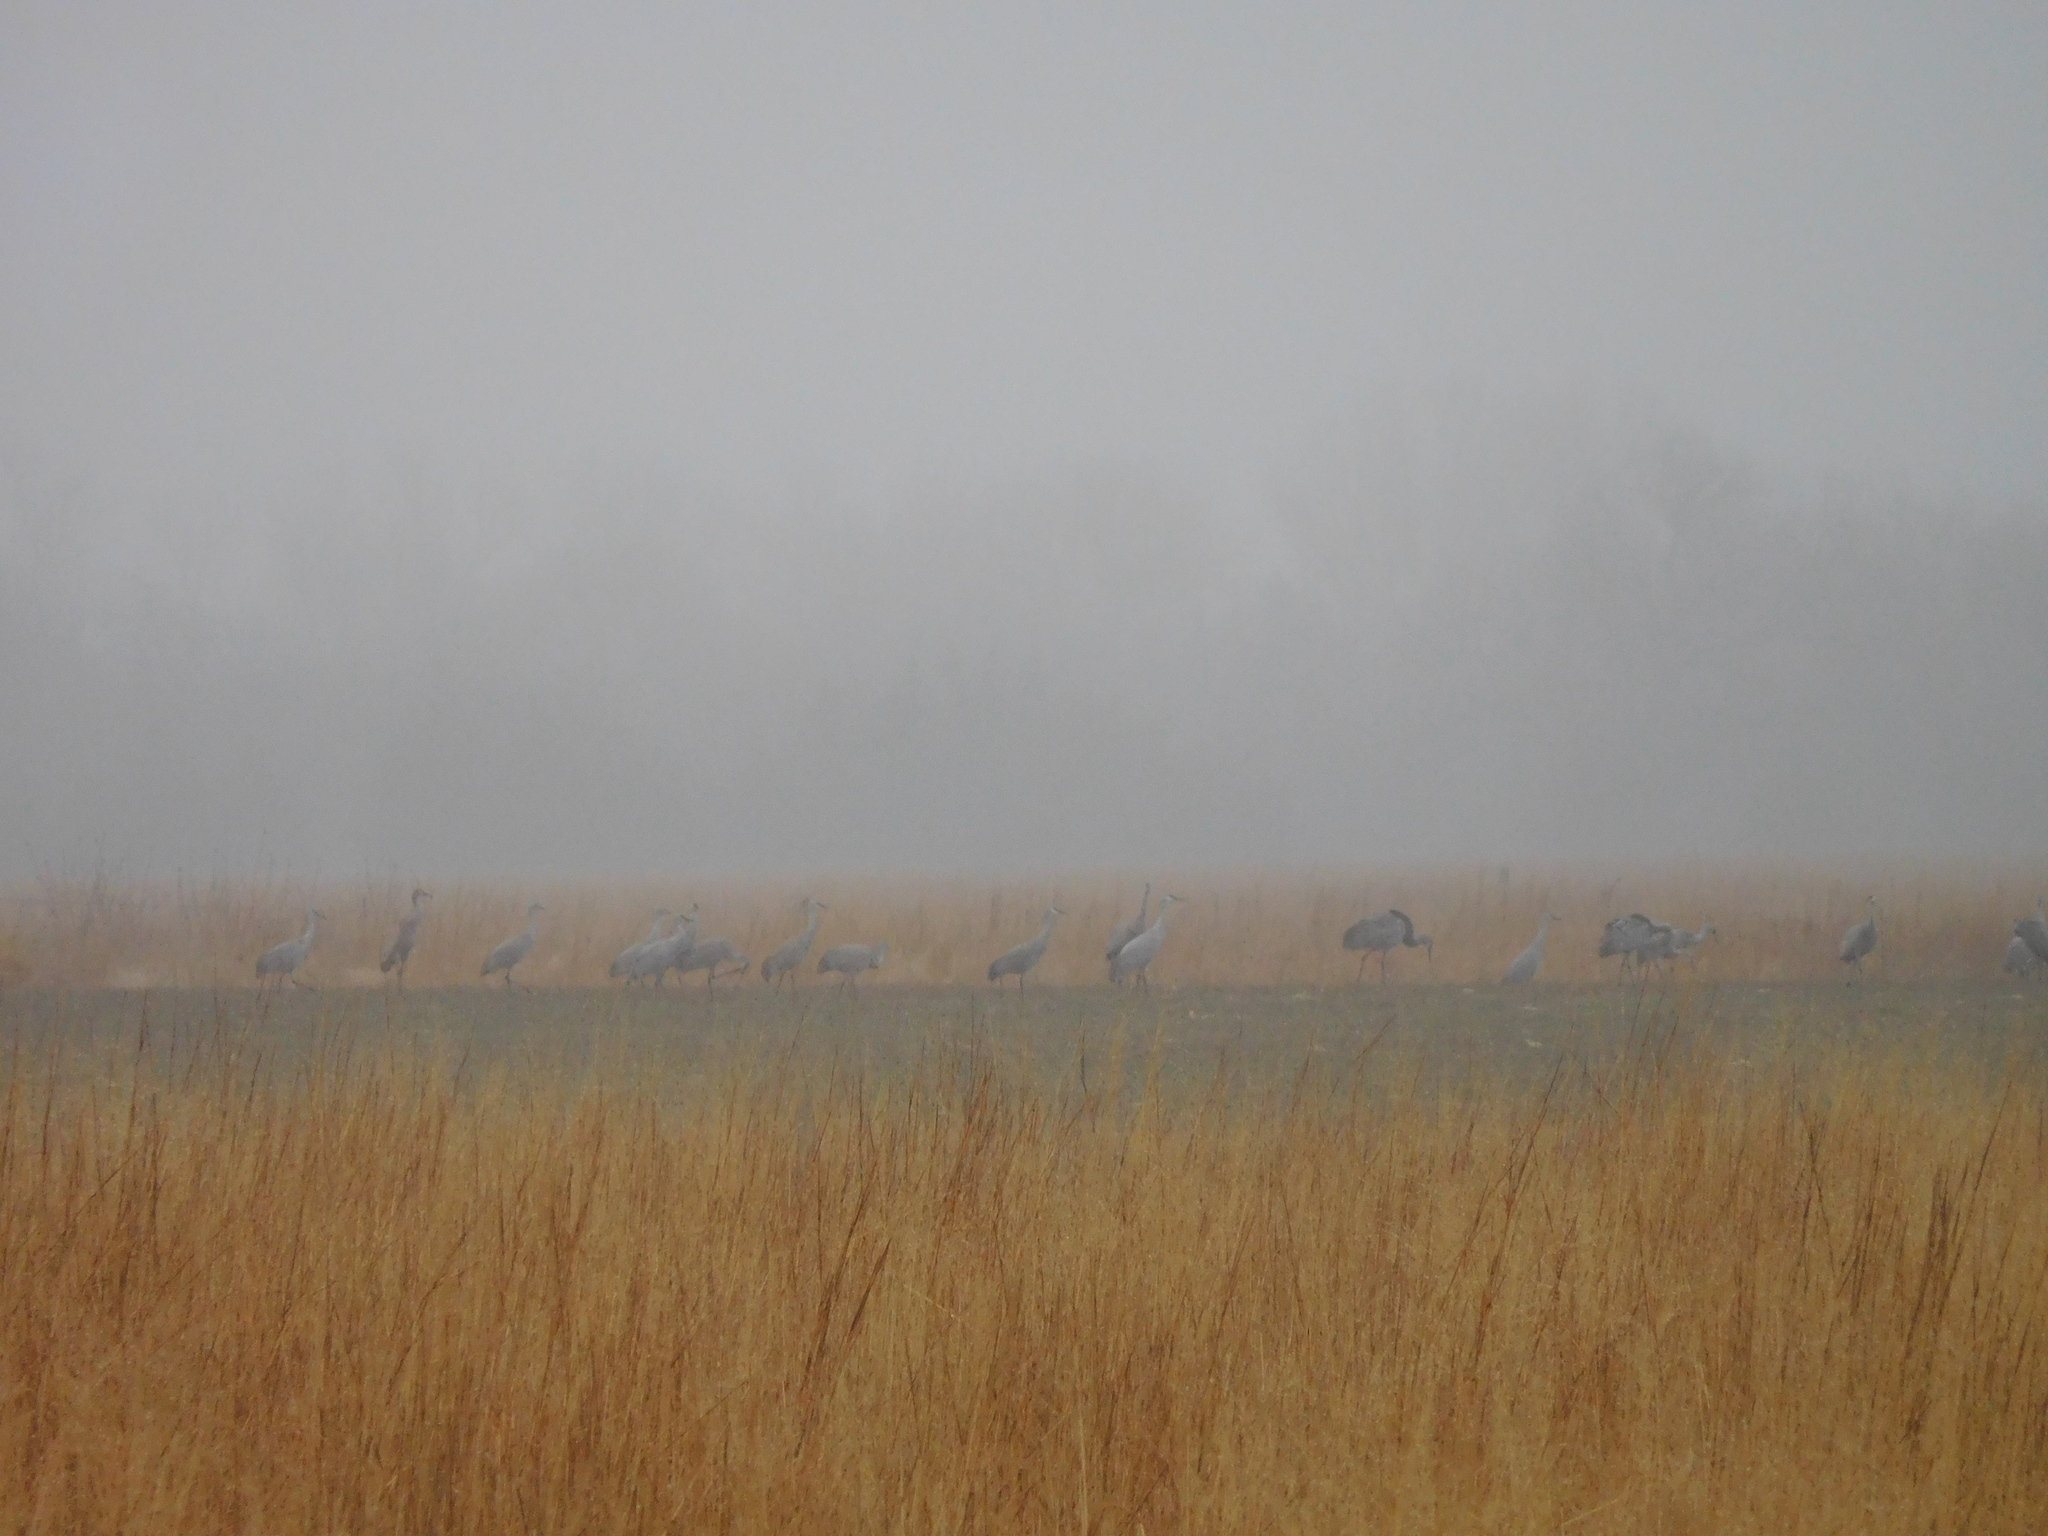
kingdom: Animalia
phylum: Chordata
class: Aves
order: Gruiformes
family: Gruidae
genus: Grus
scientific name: Grus canadensis
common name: Sandhill crane
